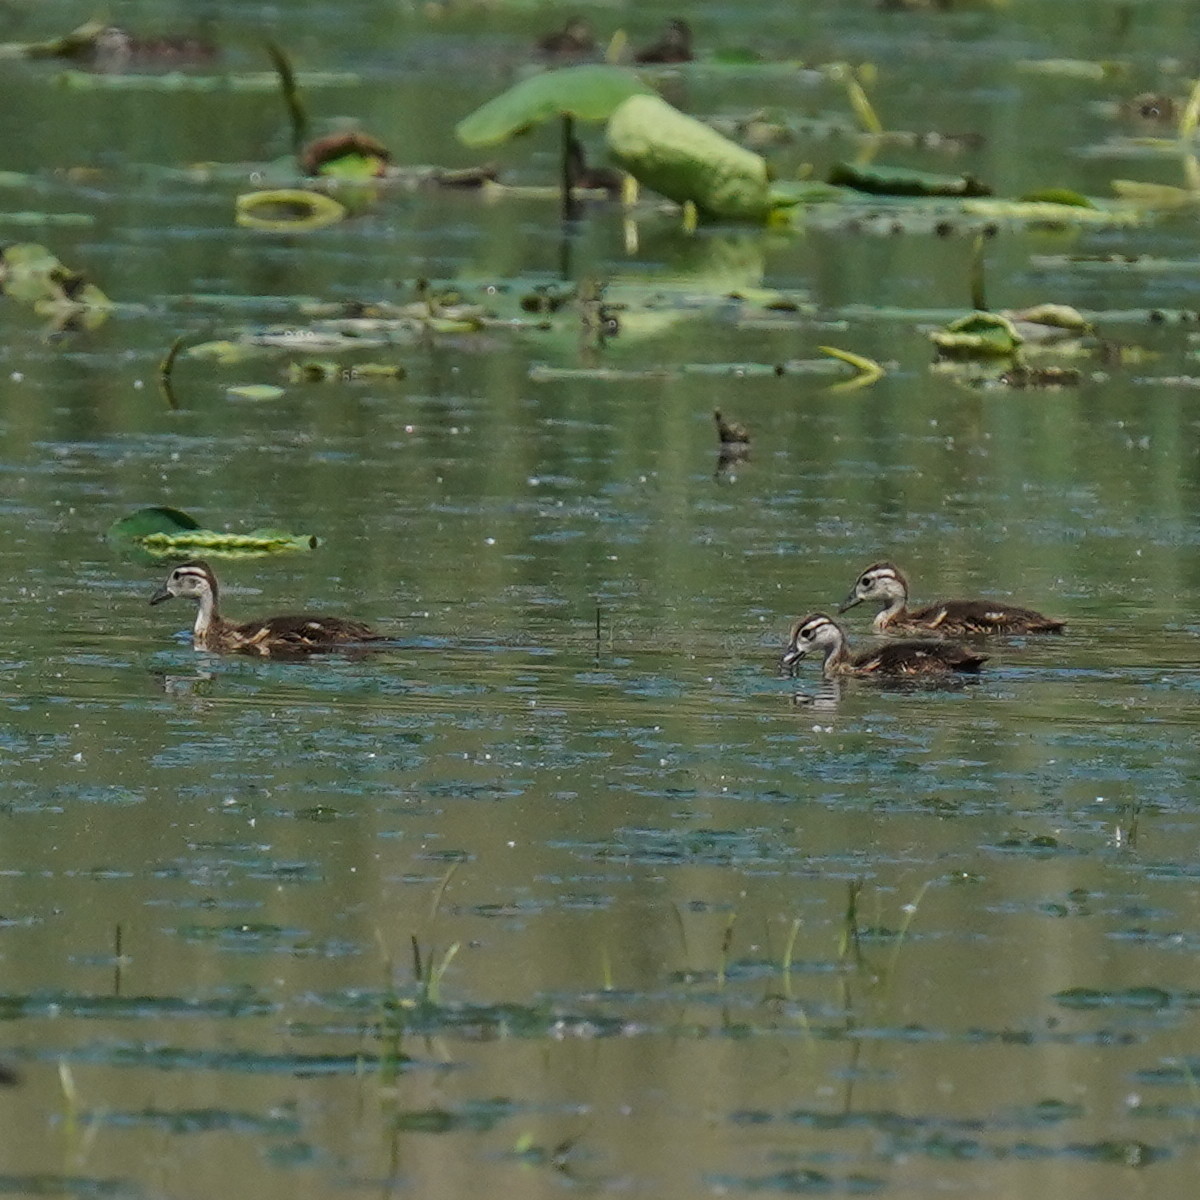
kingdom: Animalia
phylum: Chordata
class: Aves
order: Anseriformes
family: Anatidae
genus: Aix
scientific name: Aix sponsa
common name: Wood duck
